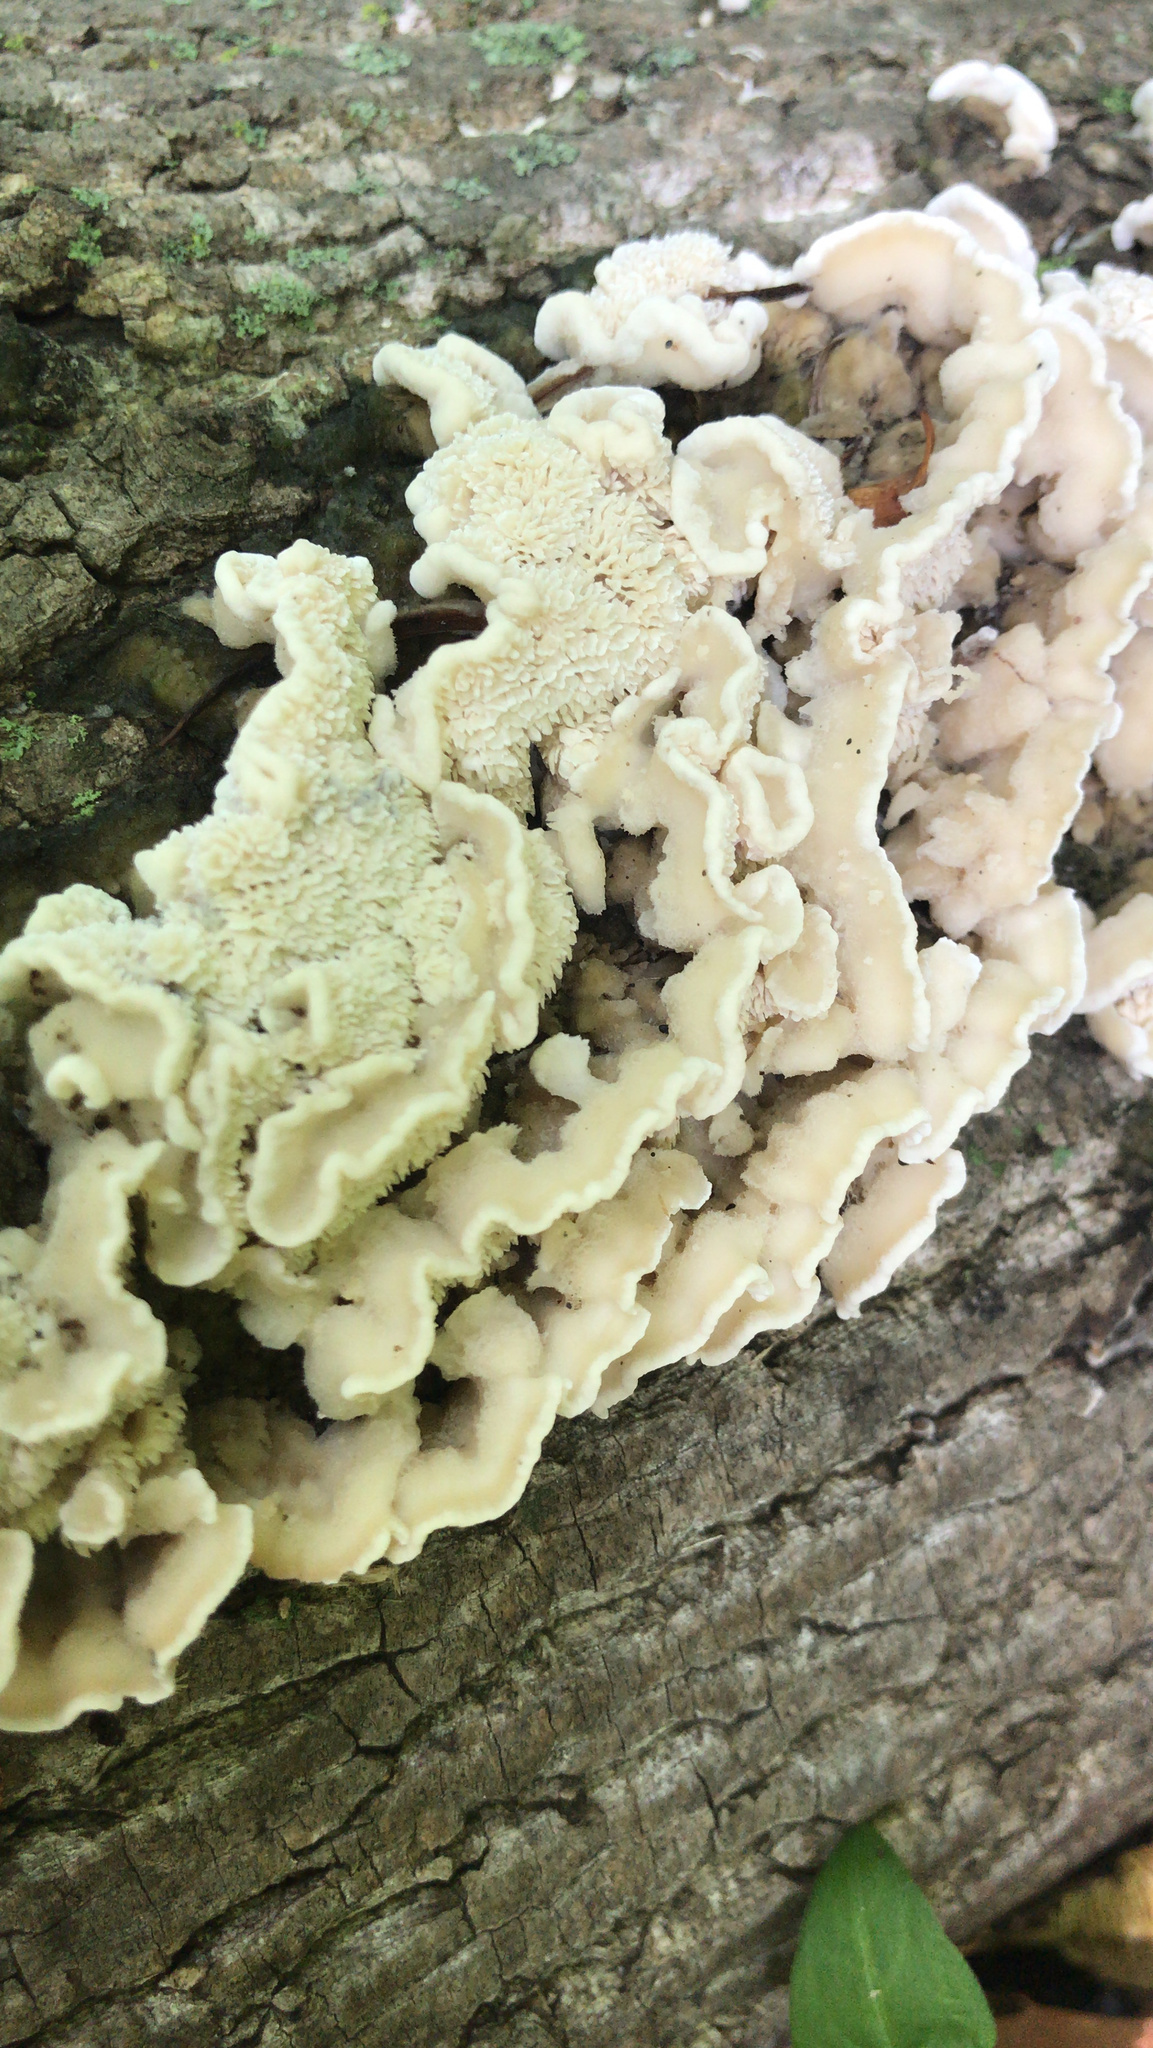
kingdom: Fungi
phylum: Basidiomycota
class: Agaricomycetes
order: Polyporales
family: Meruliaceae
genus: Phlebia
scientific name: Phlebia tremellosa
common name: Jelly rot
